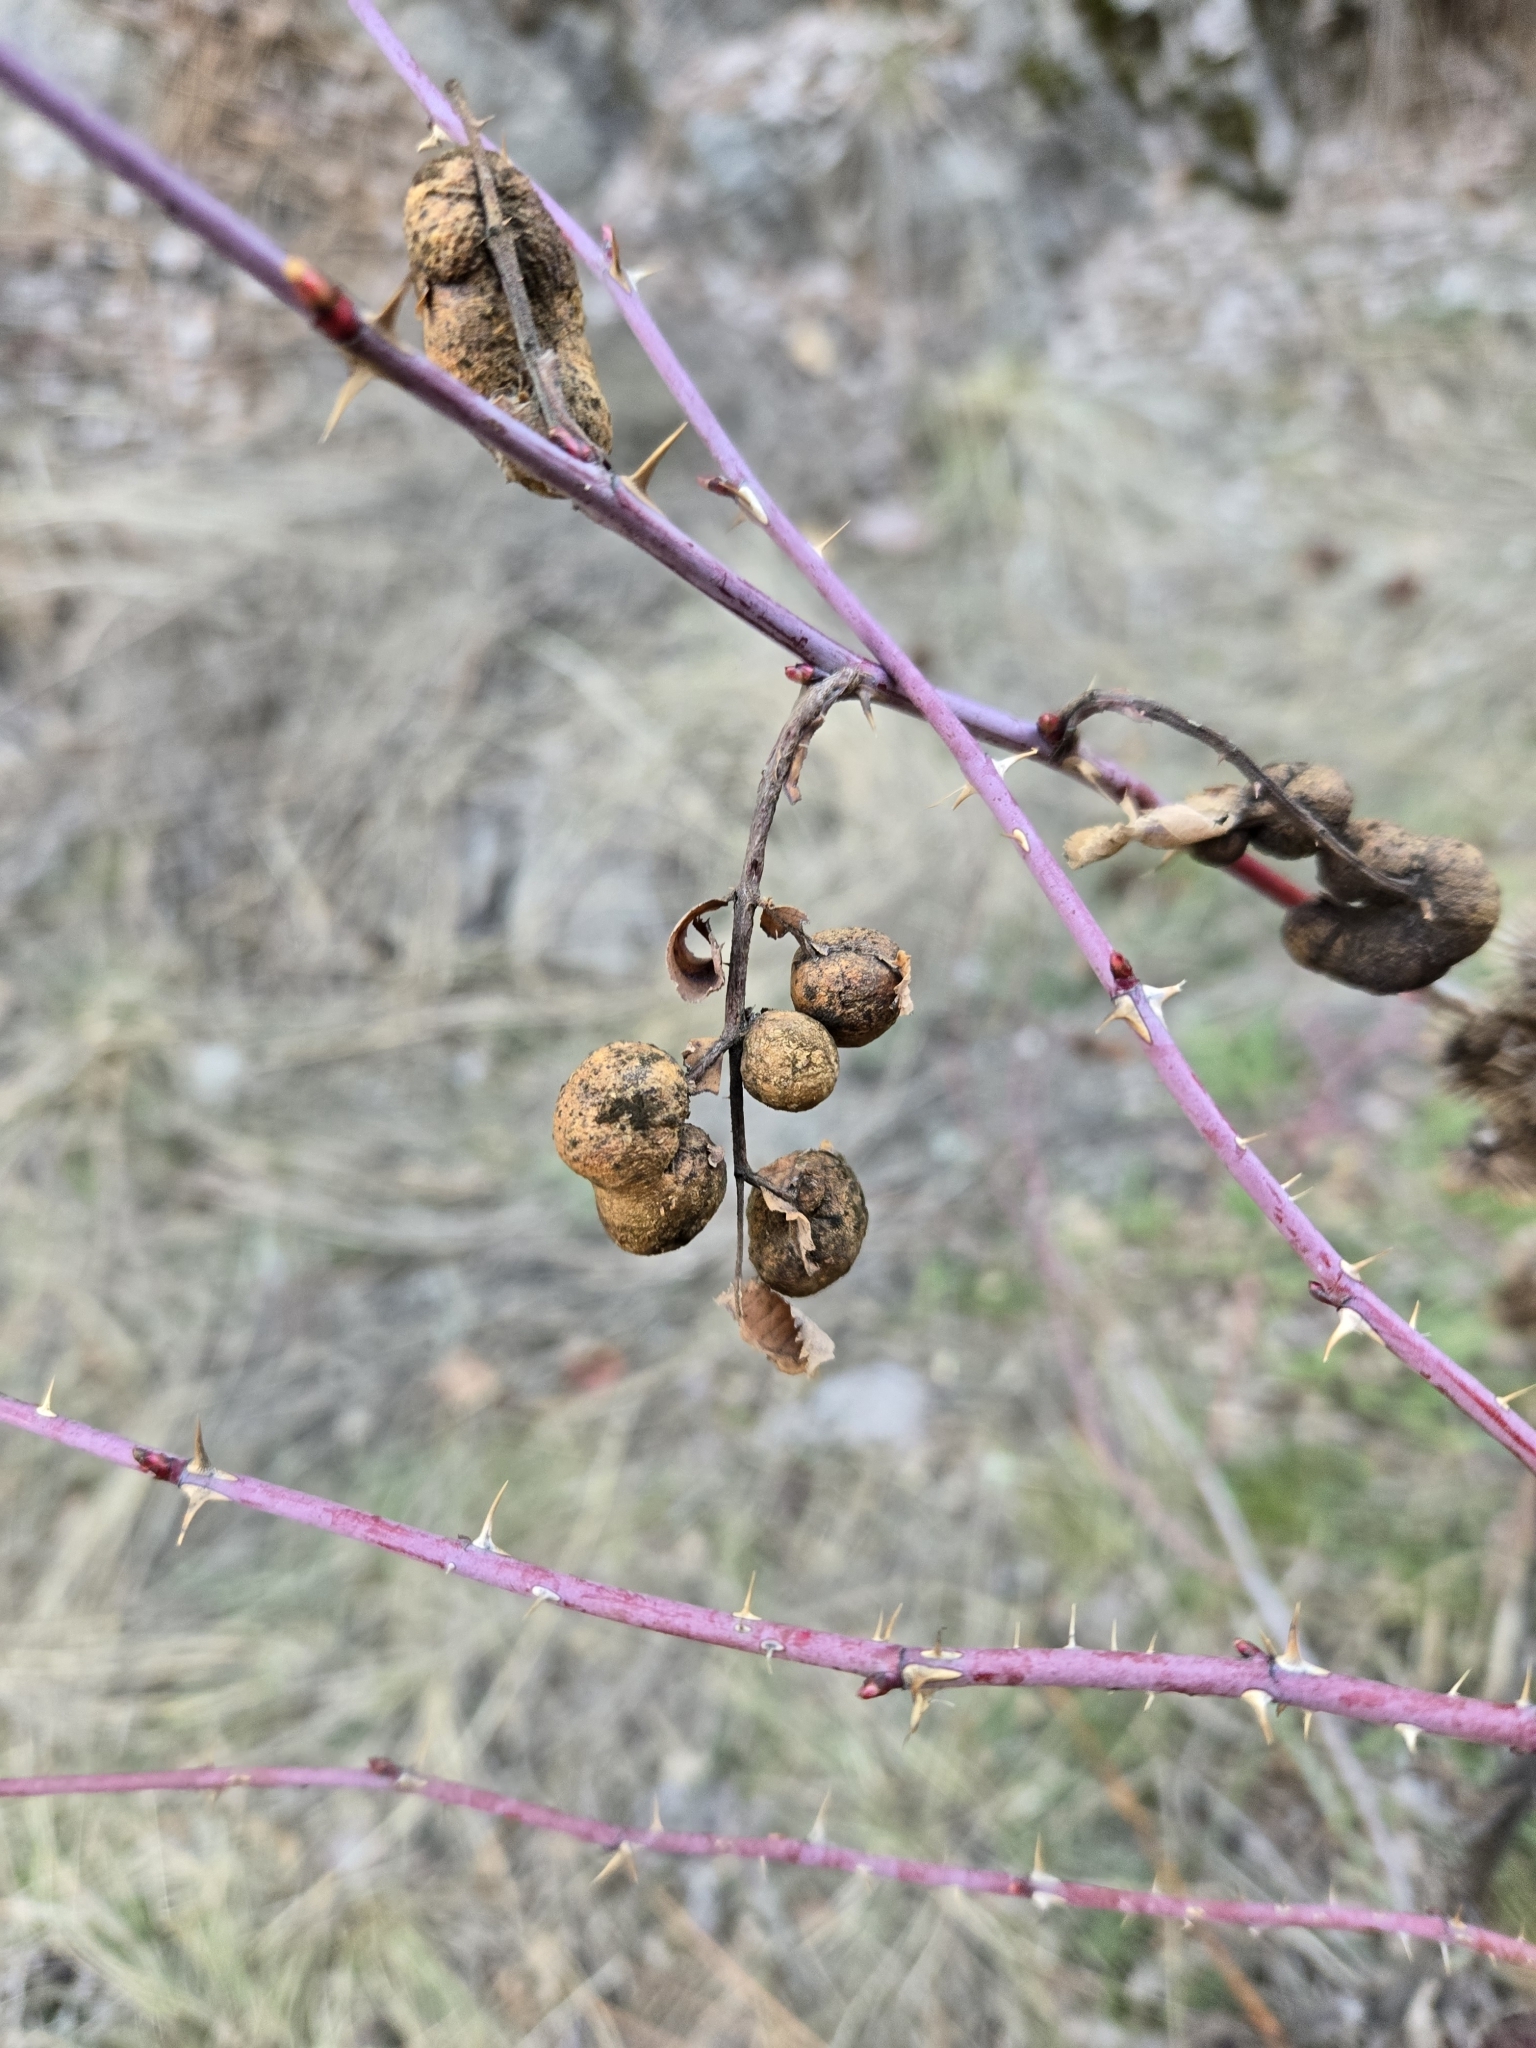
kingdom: Animalia
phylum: Arthropoda
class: Insecta
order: Hymenoptera
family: Cynipidae
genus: Diplolepis
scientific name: Diplolepis variabilis
